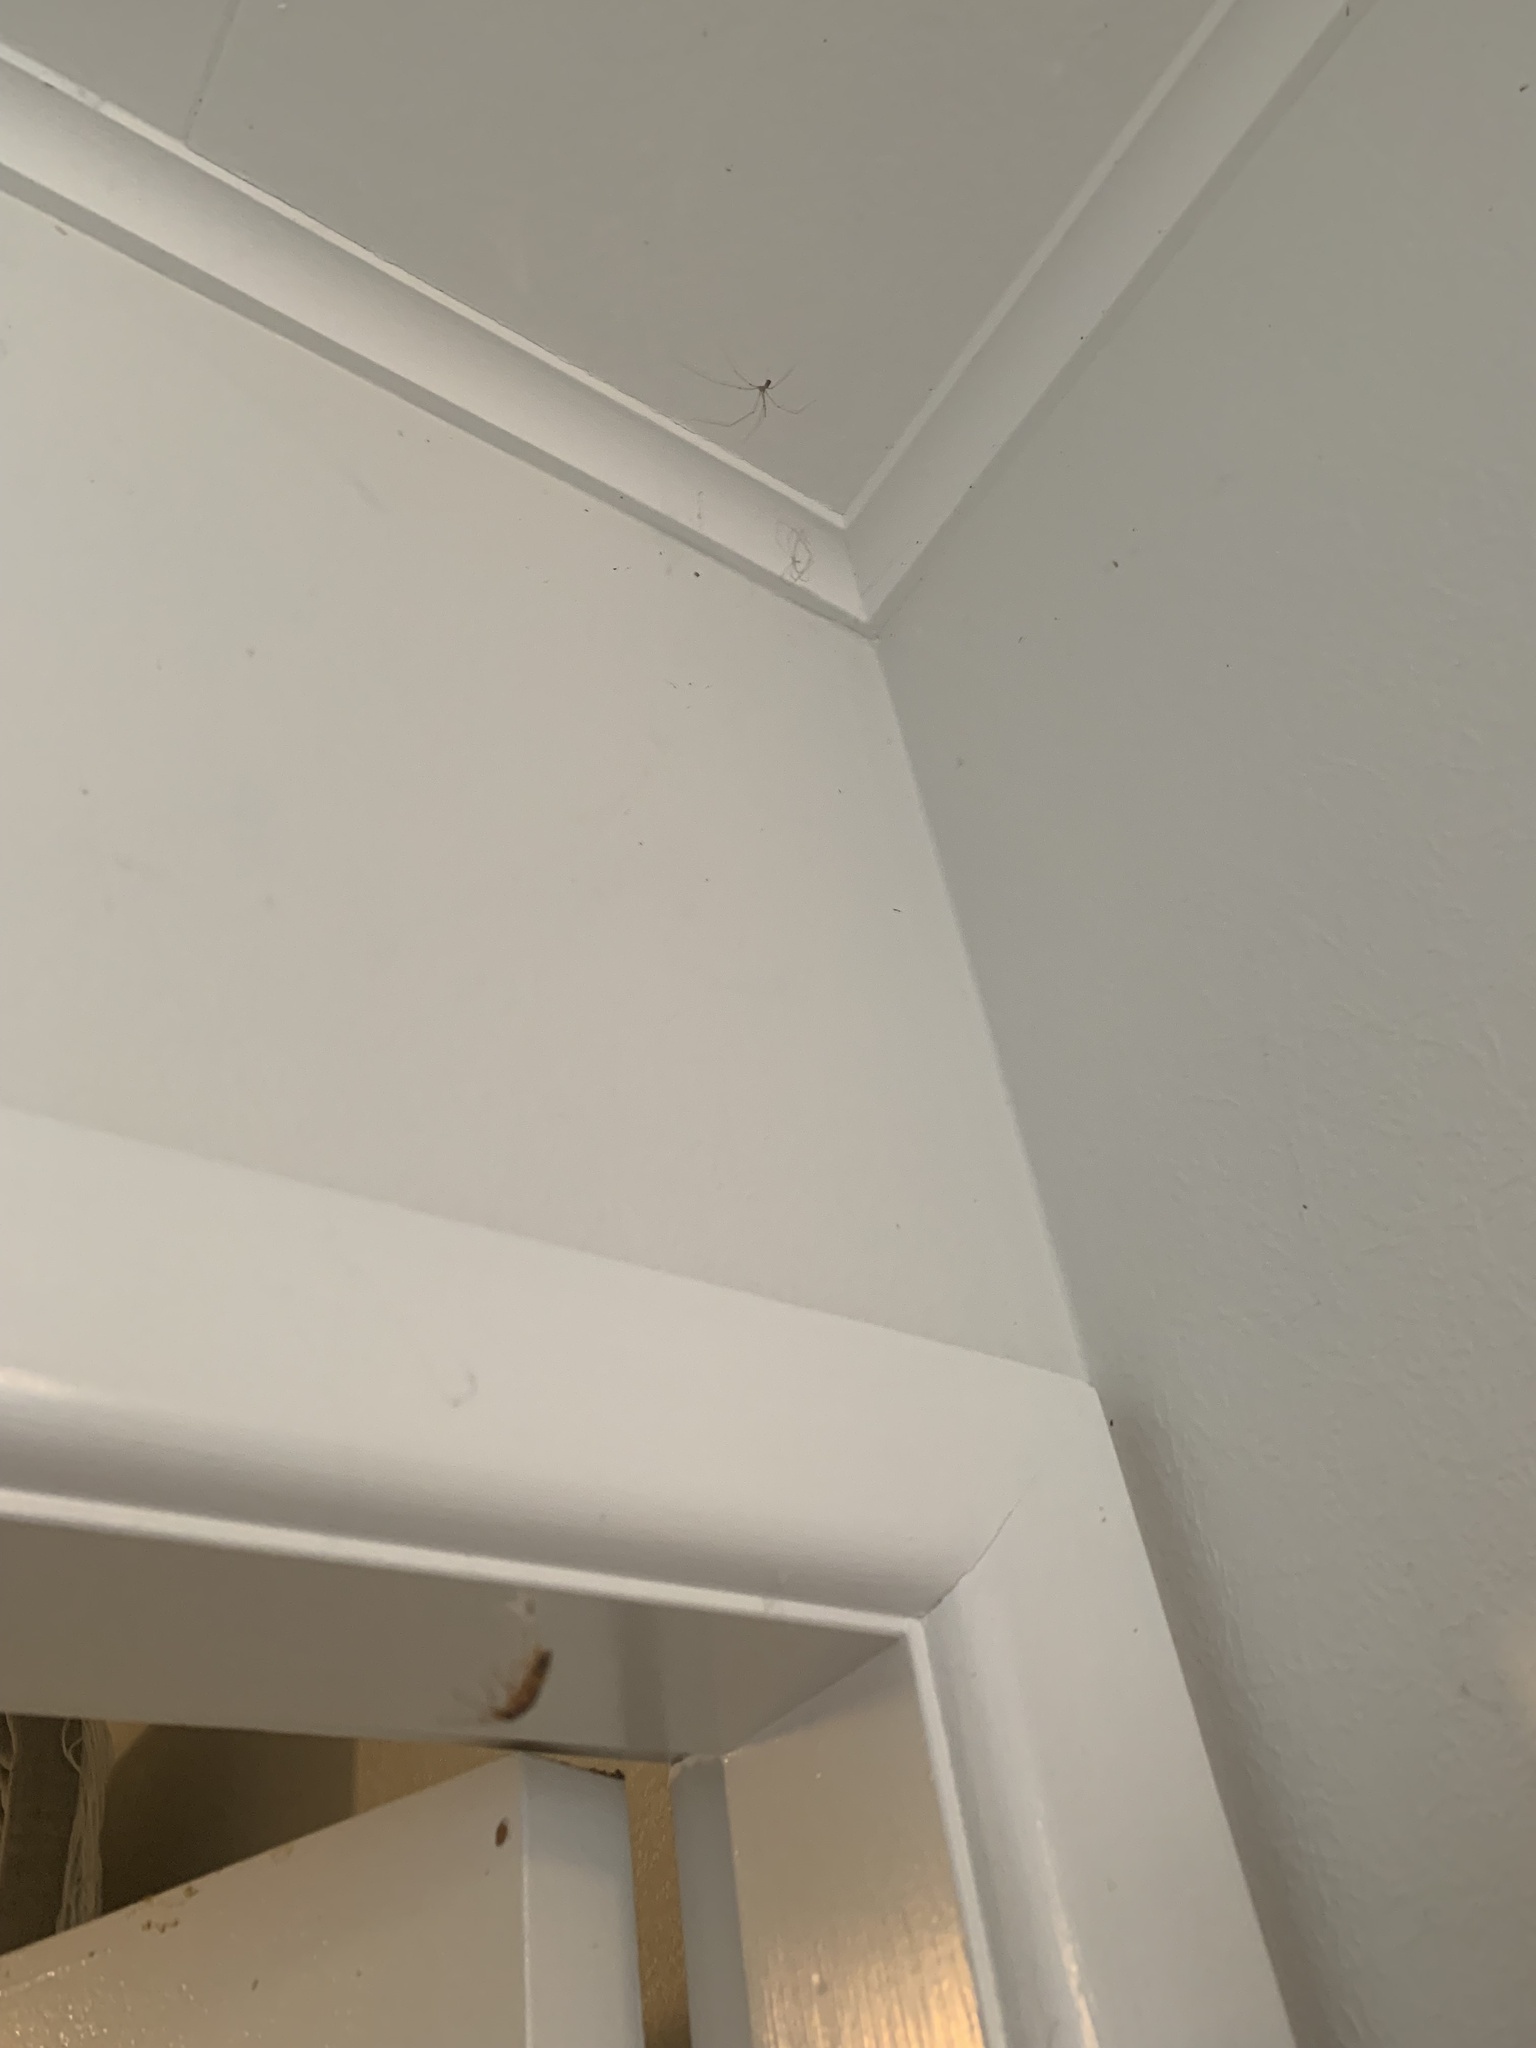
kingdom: Animalia
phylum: Arthropoda
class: Arachnida
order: Araneae
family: Pholcidae
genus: Pholcus
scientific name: Pholcus phalangioides
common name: Longbodied cellar spider
